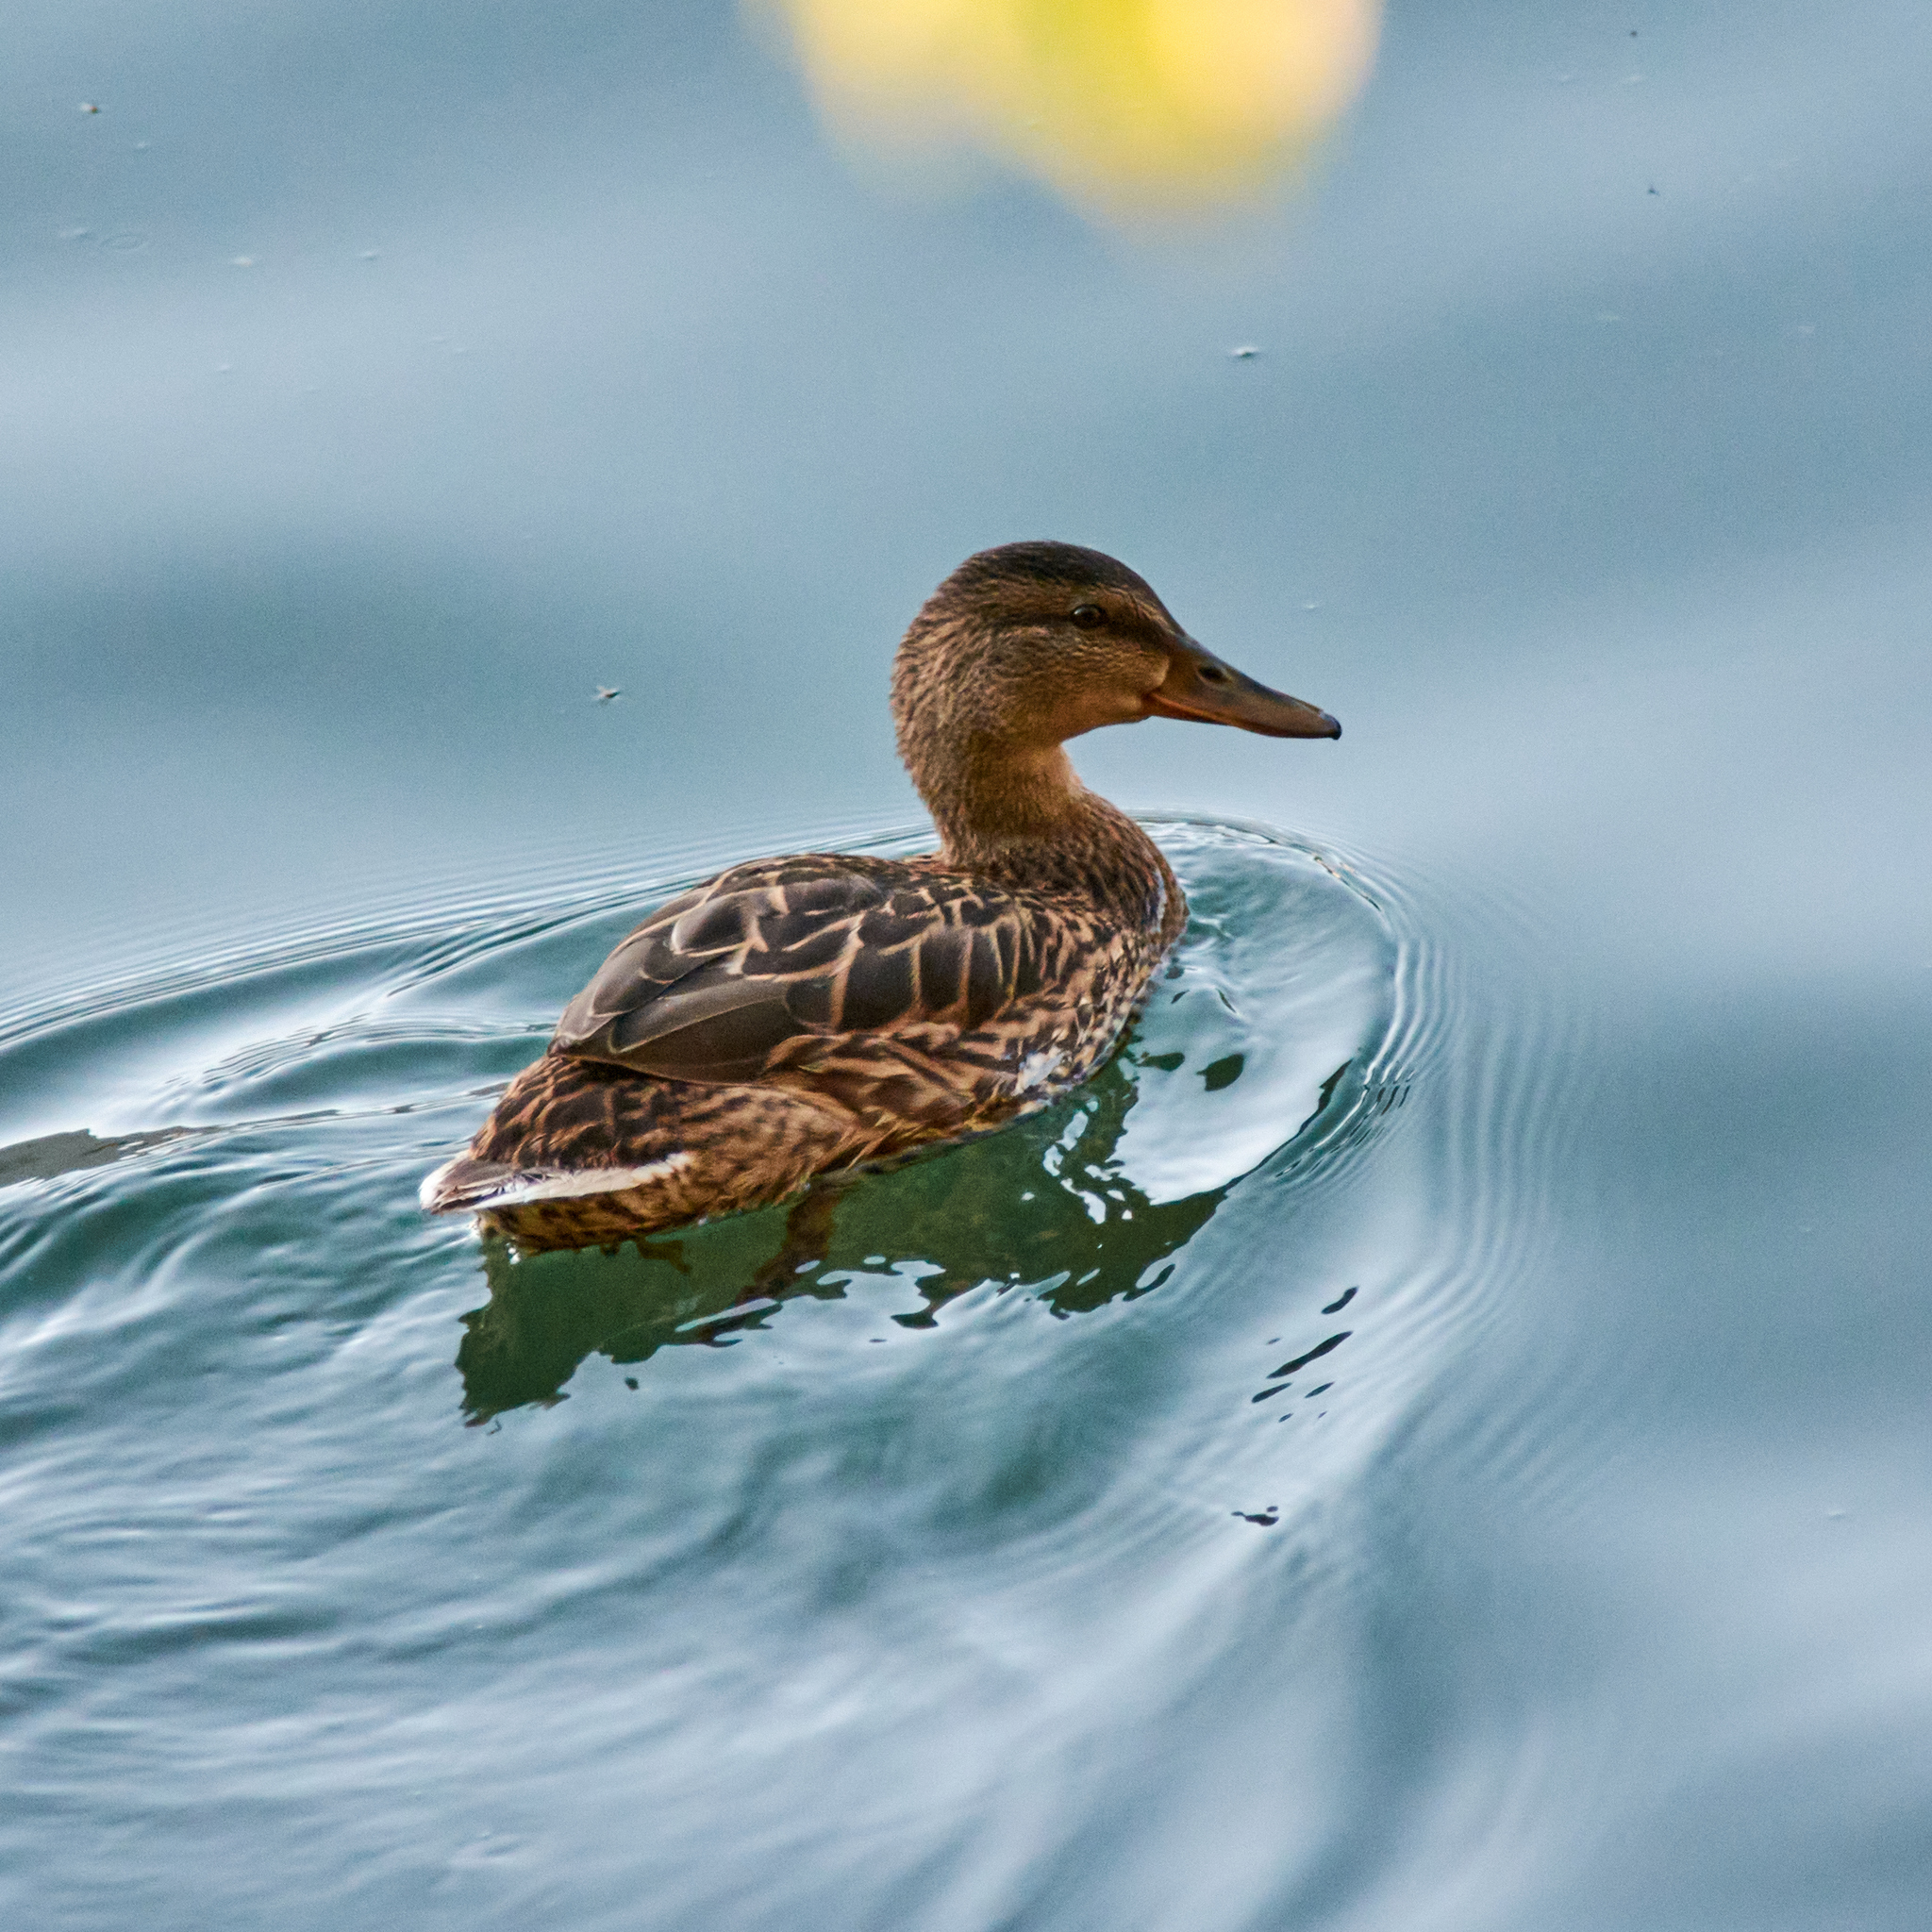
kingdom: Animalia
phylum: Chordata
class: Aves
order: Anseriformes
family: Anatidae
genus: Anas
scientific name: Anas platyrhynchos
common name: Mallard
